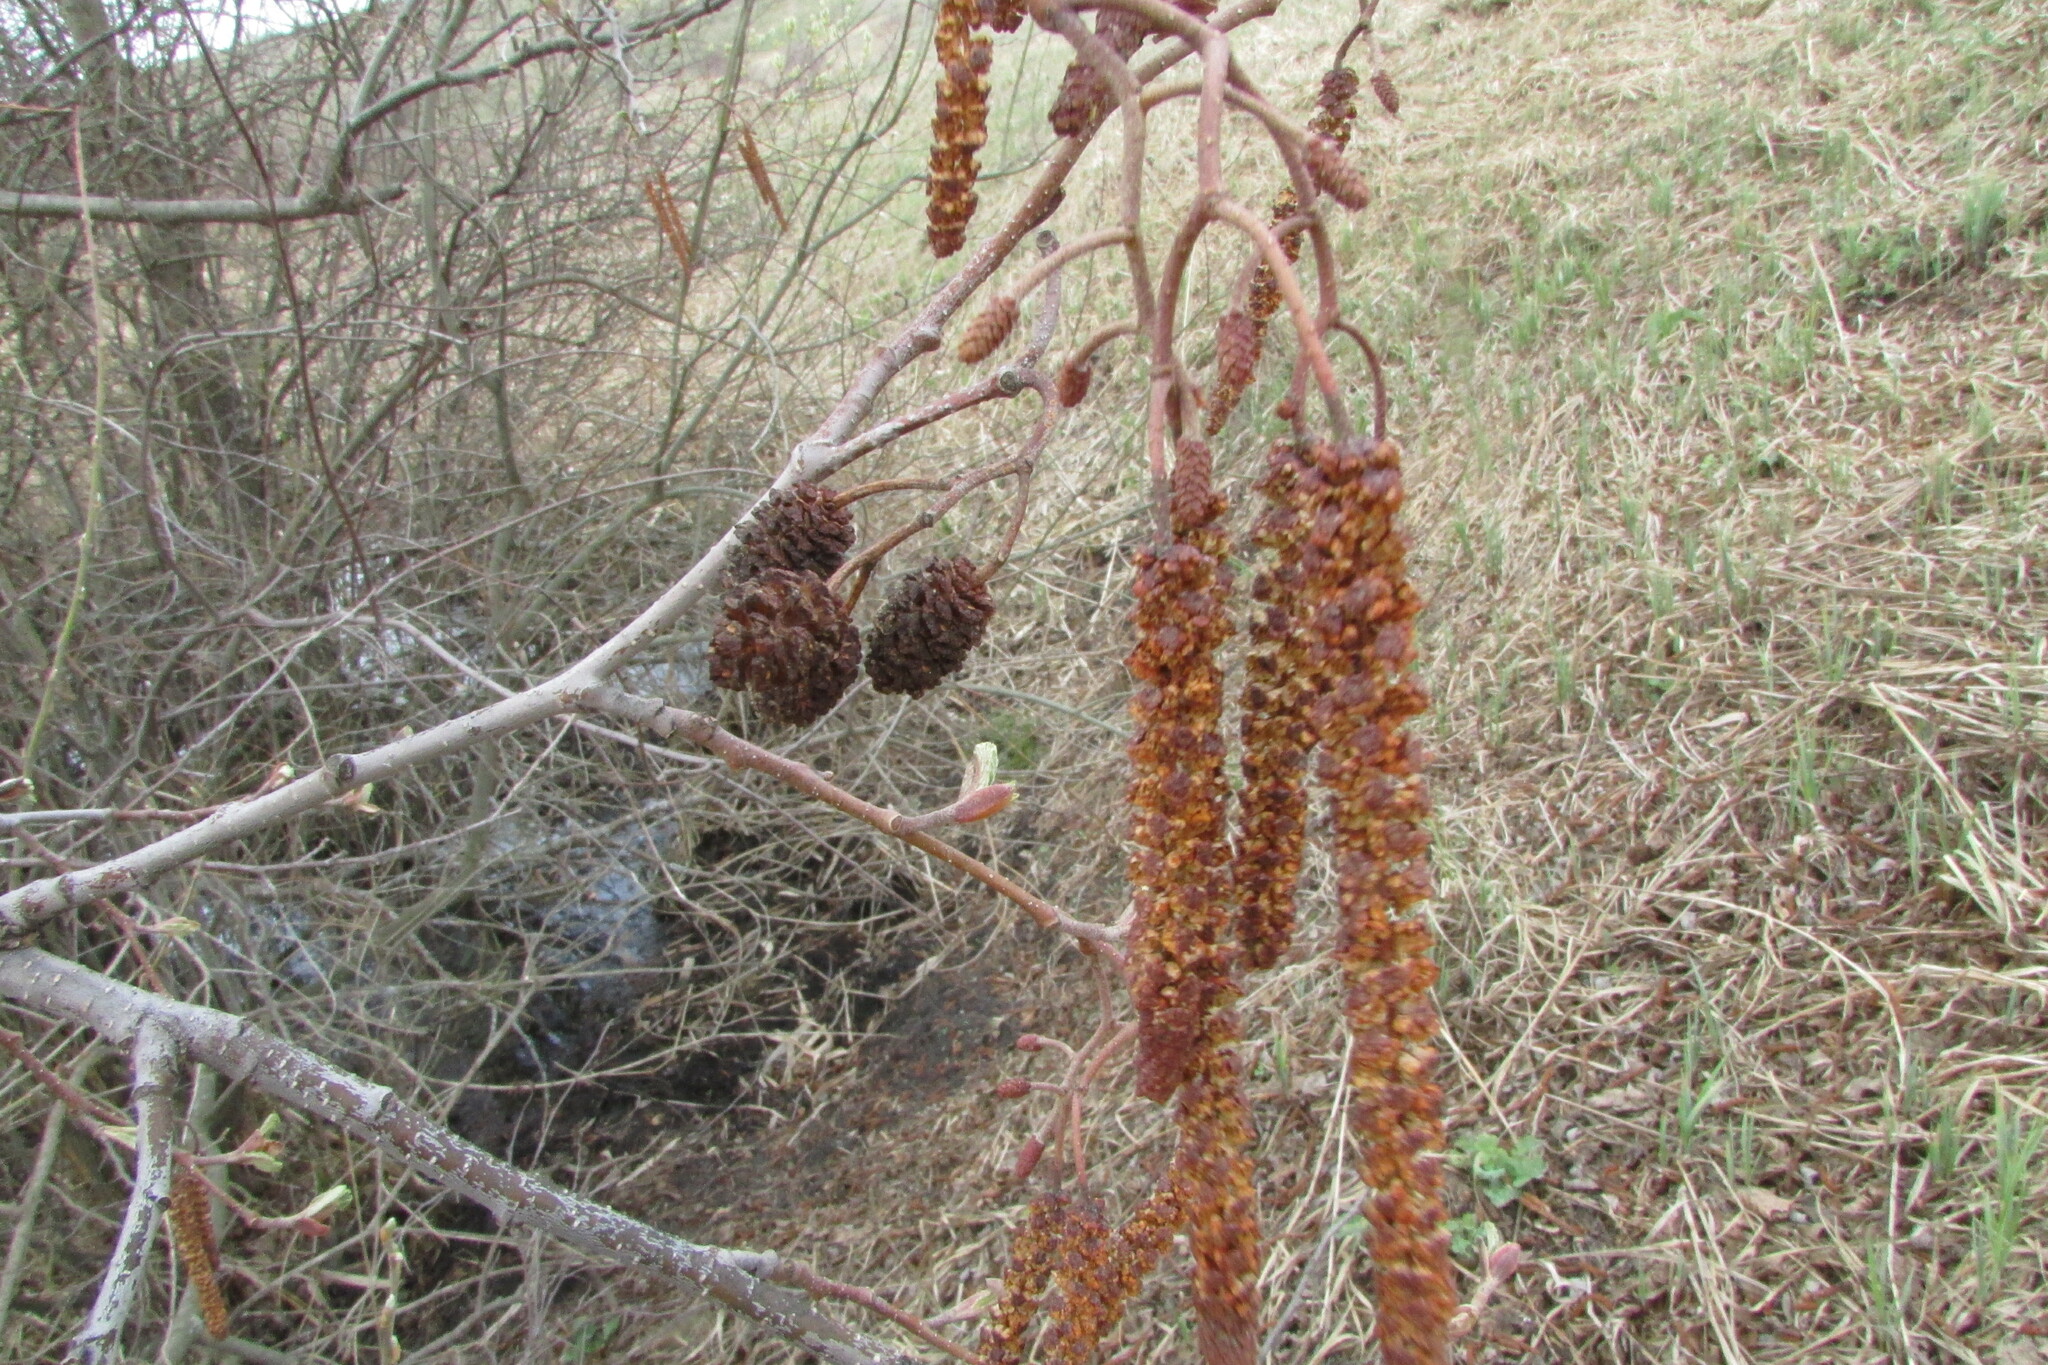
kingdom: Plantae
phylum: Tracheophyta
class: Magnoliopsida
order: Fagales
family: Betulaceae
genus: Alnus
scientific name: Alnus glutinosa
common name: Black alder
